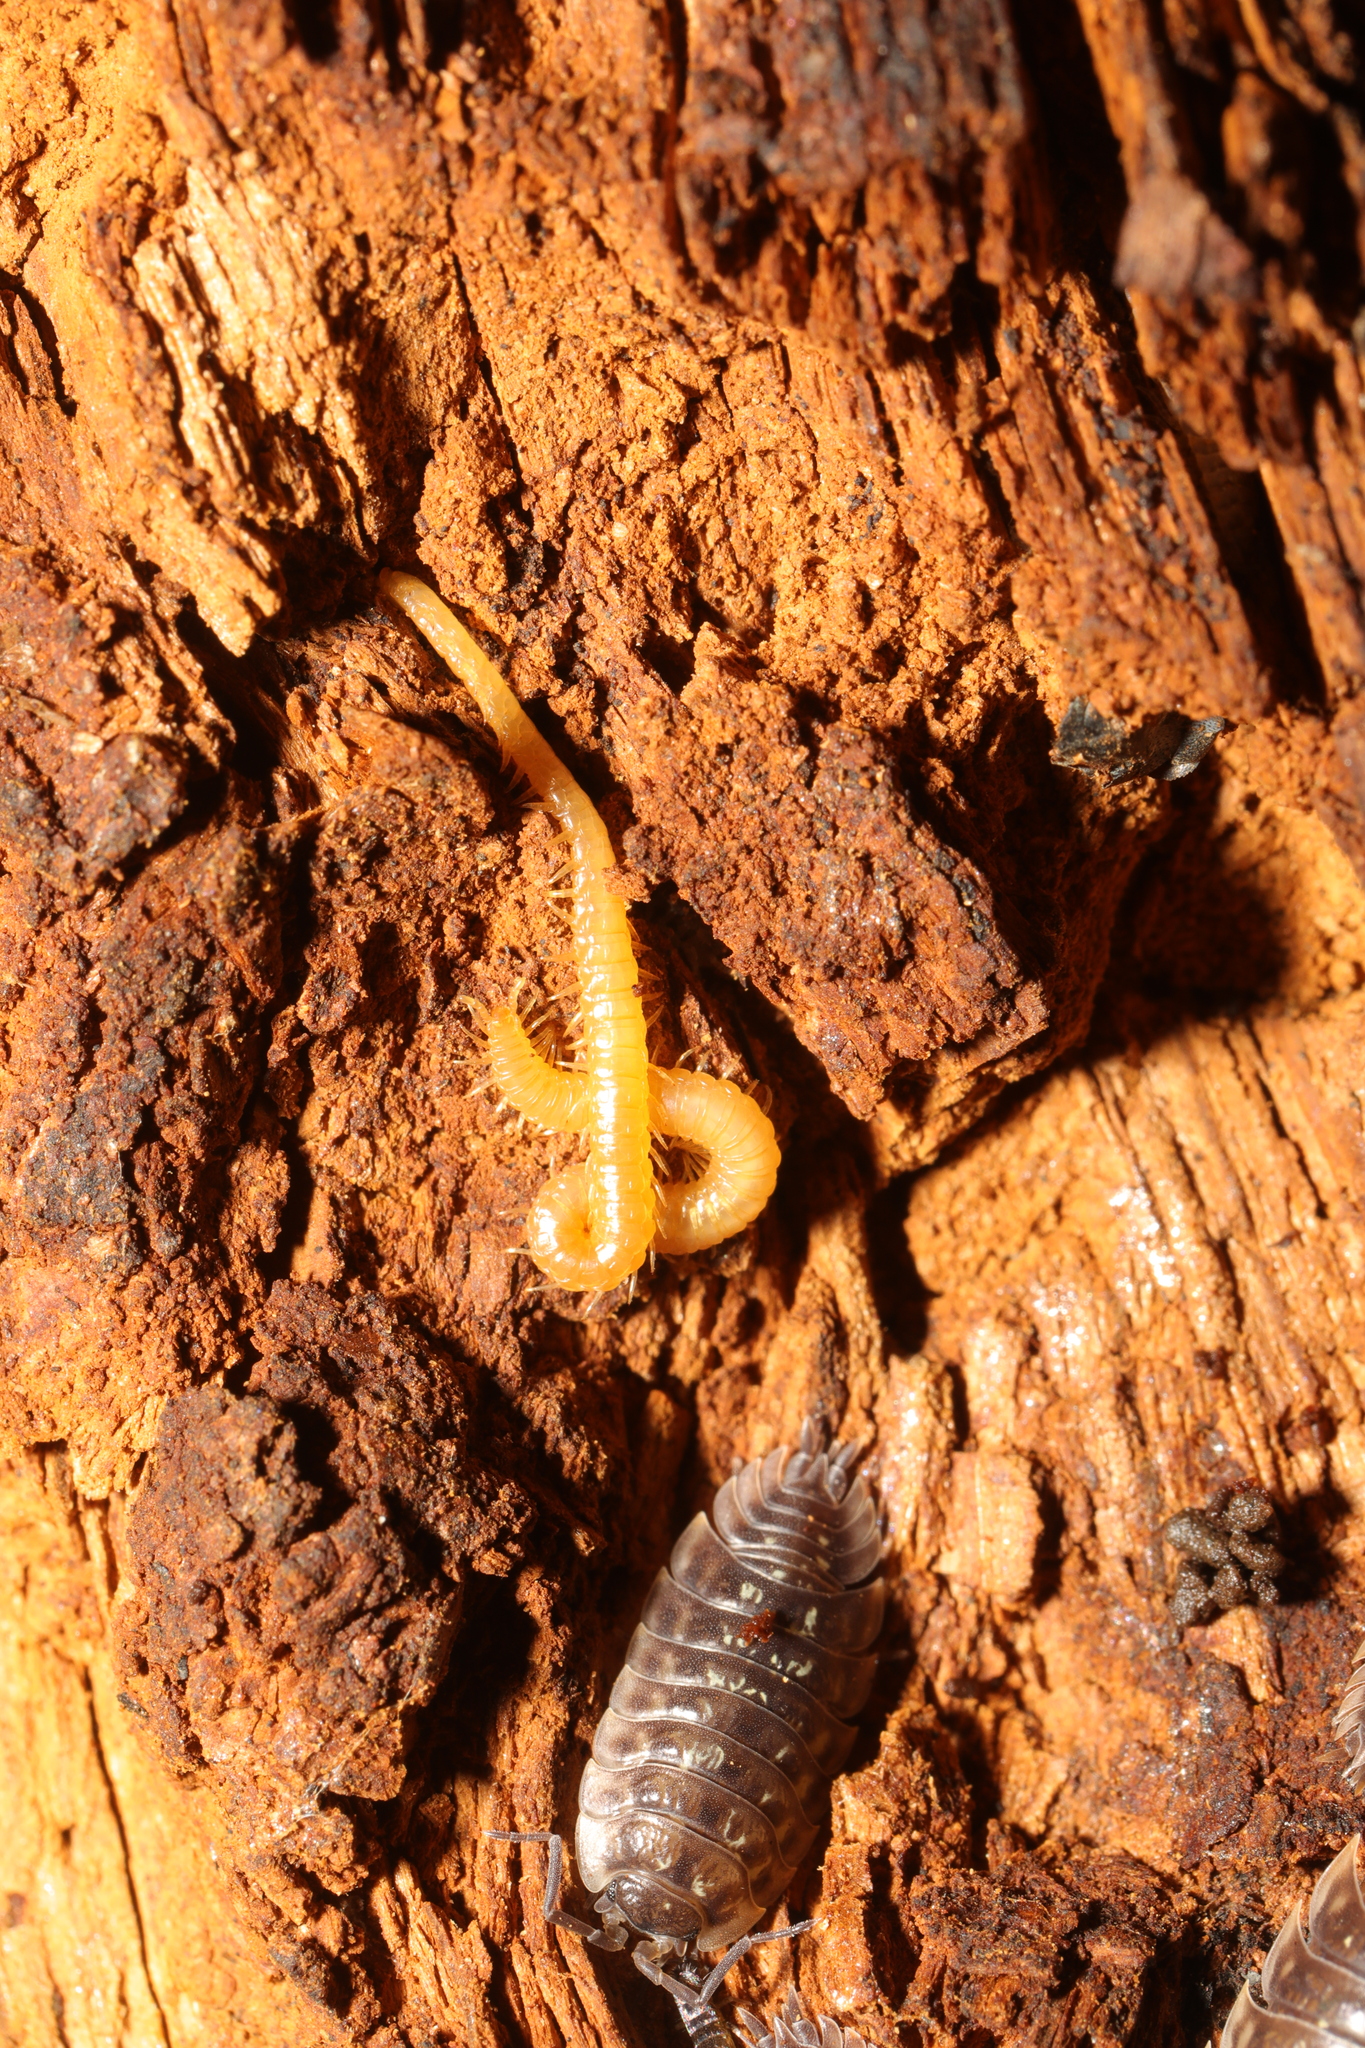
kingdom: Animalia
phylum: Arthropoda
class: Chilopoda
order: Geophilomorpha
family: Himantariidae
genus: Stigmatogaster
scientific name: Stigmatogaster subterranea
